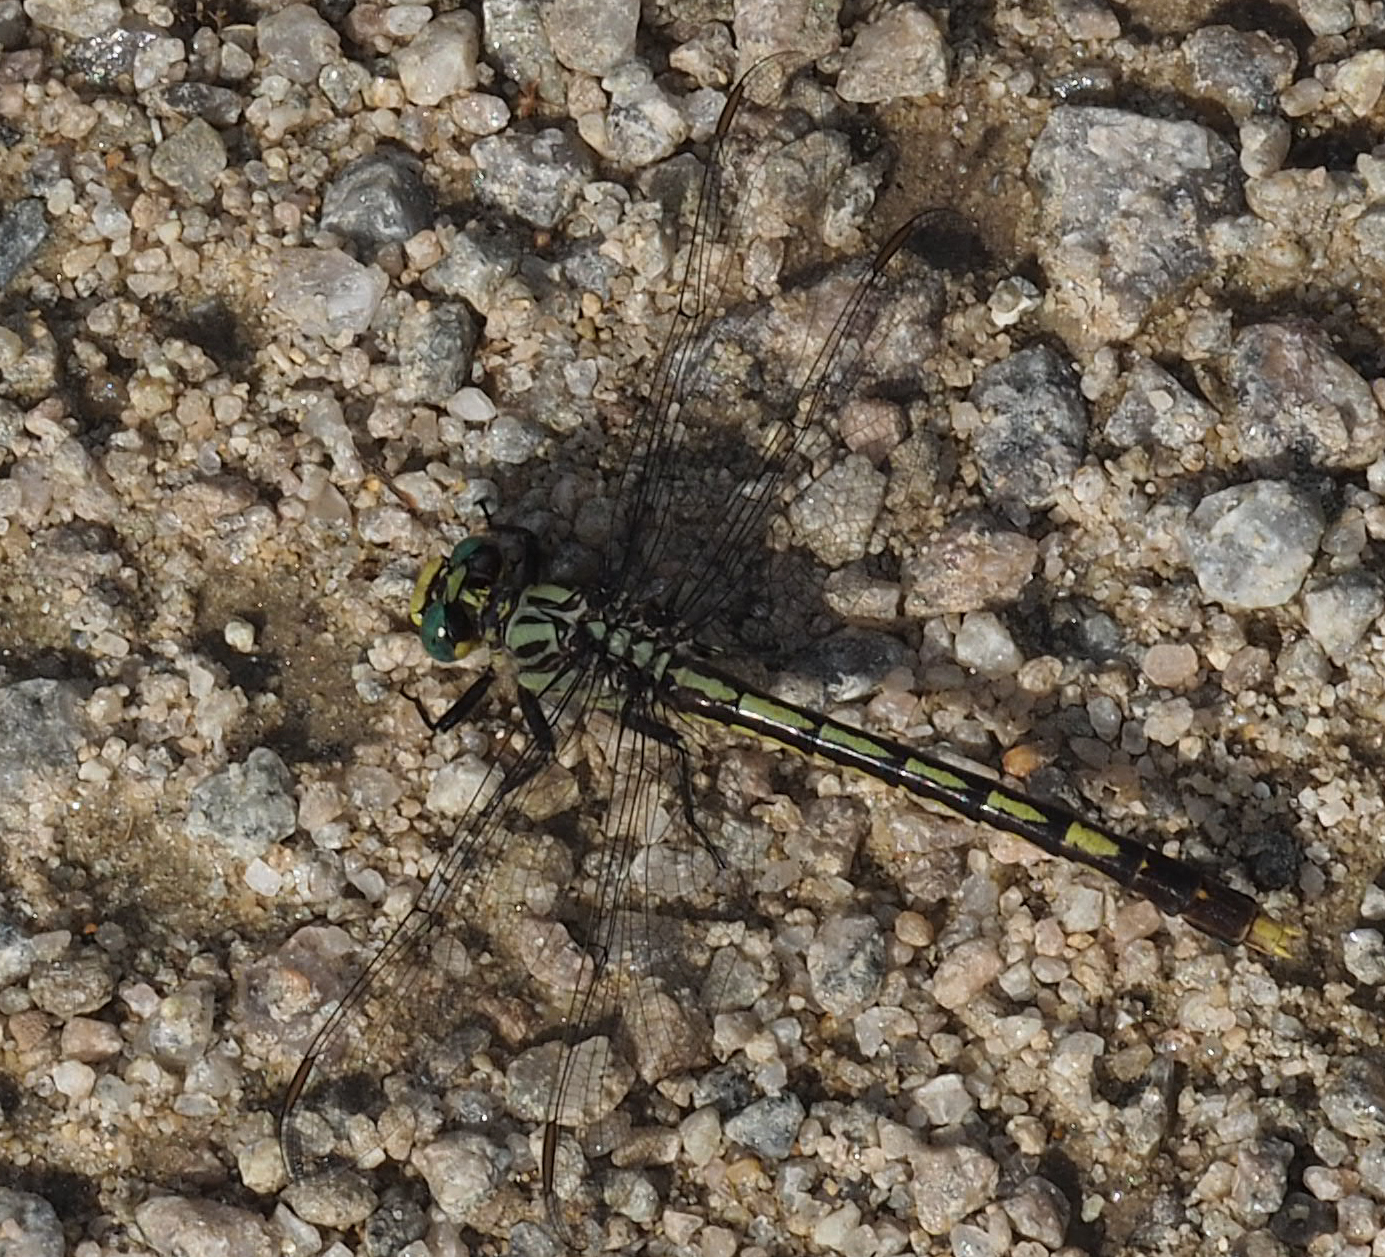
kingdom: Animalia
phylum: Arthropoda
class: Insecta
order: Odonata
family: Gomphidae
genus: Arigomphus
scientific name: Arigomphus villosipes
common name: Unicorn clubtail
